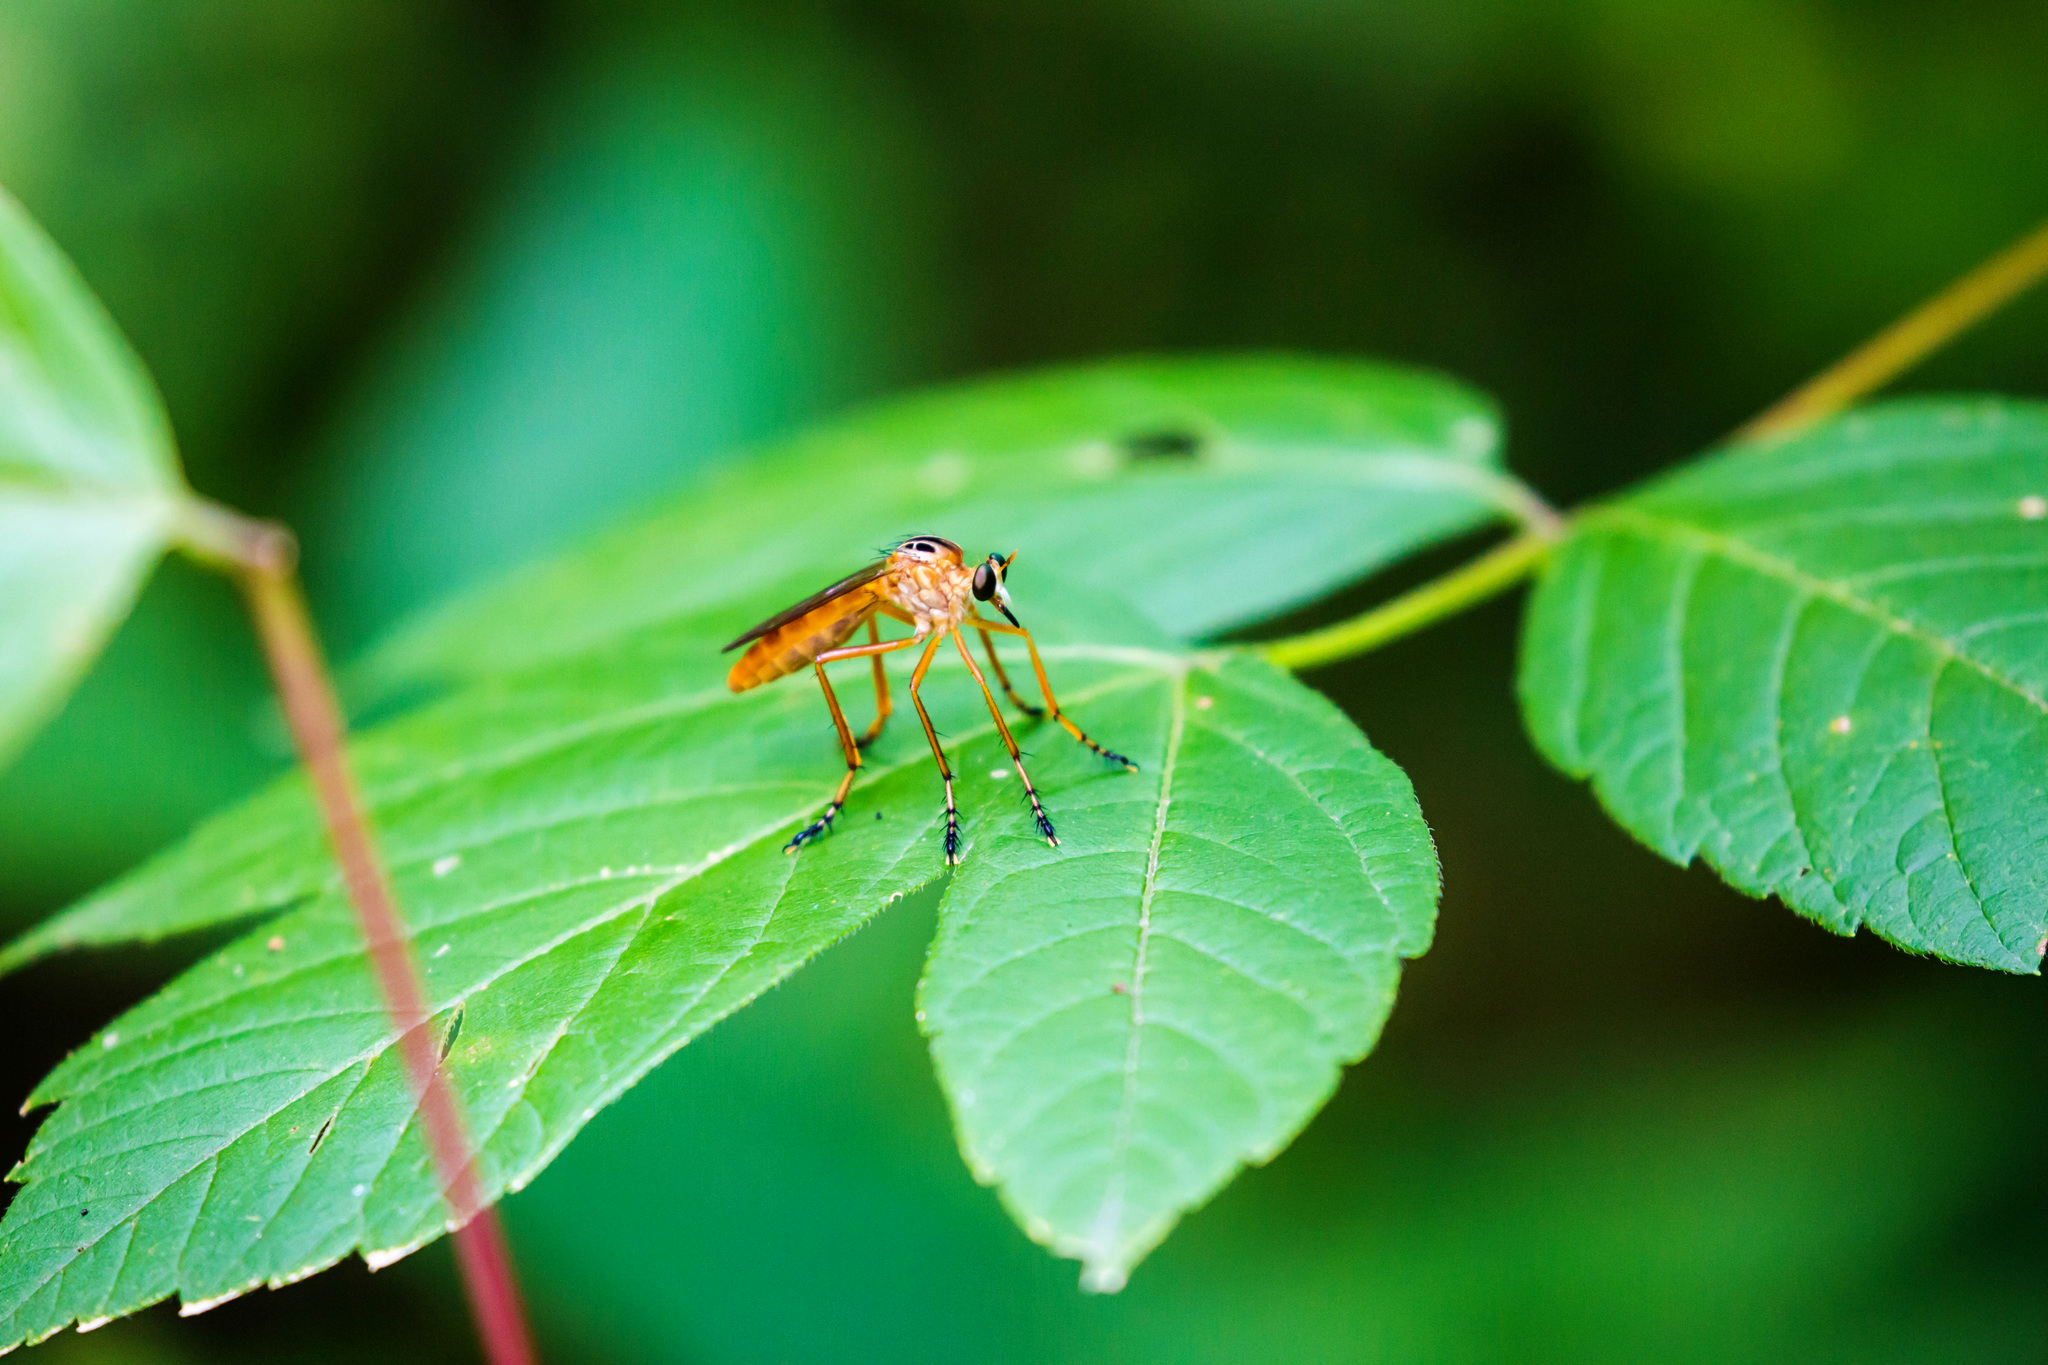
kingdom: Animalia
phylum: Arthropoda
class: Insecta
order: Diptera
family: Asilidae
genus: Diogmites
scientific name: Diogmites neoternatus
